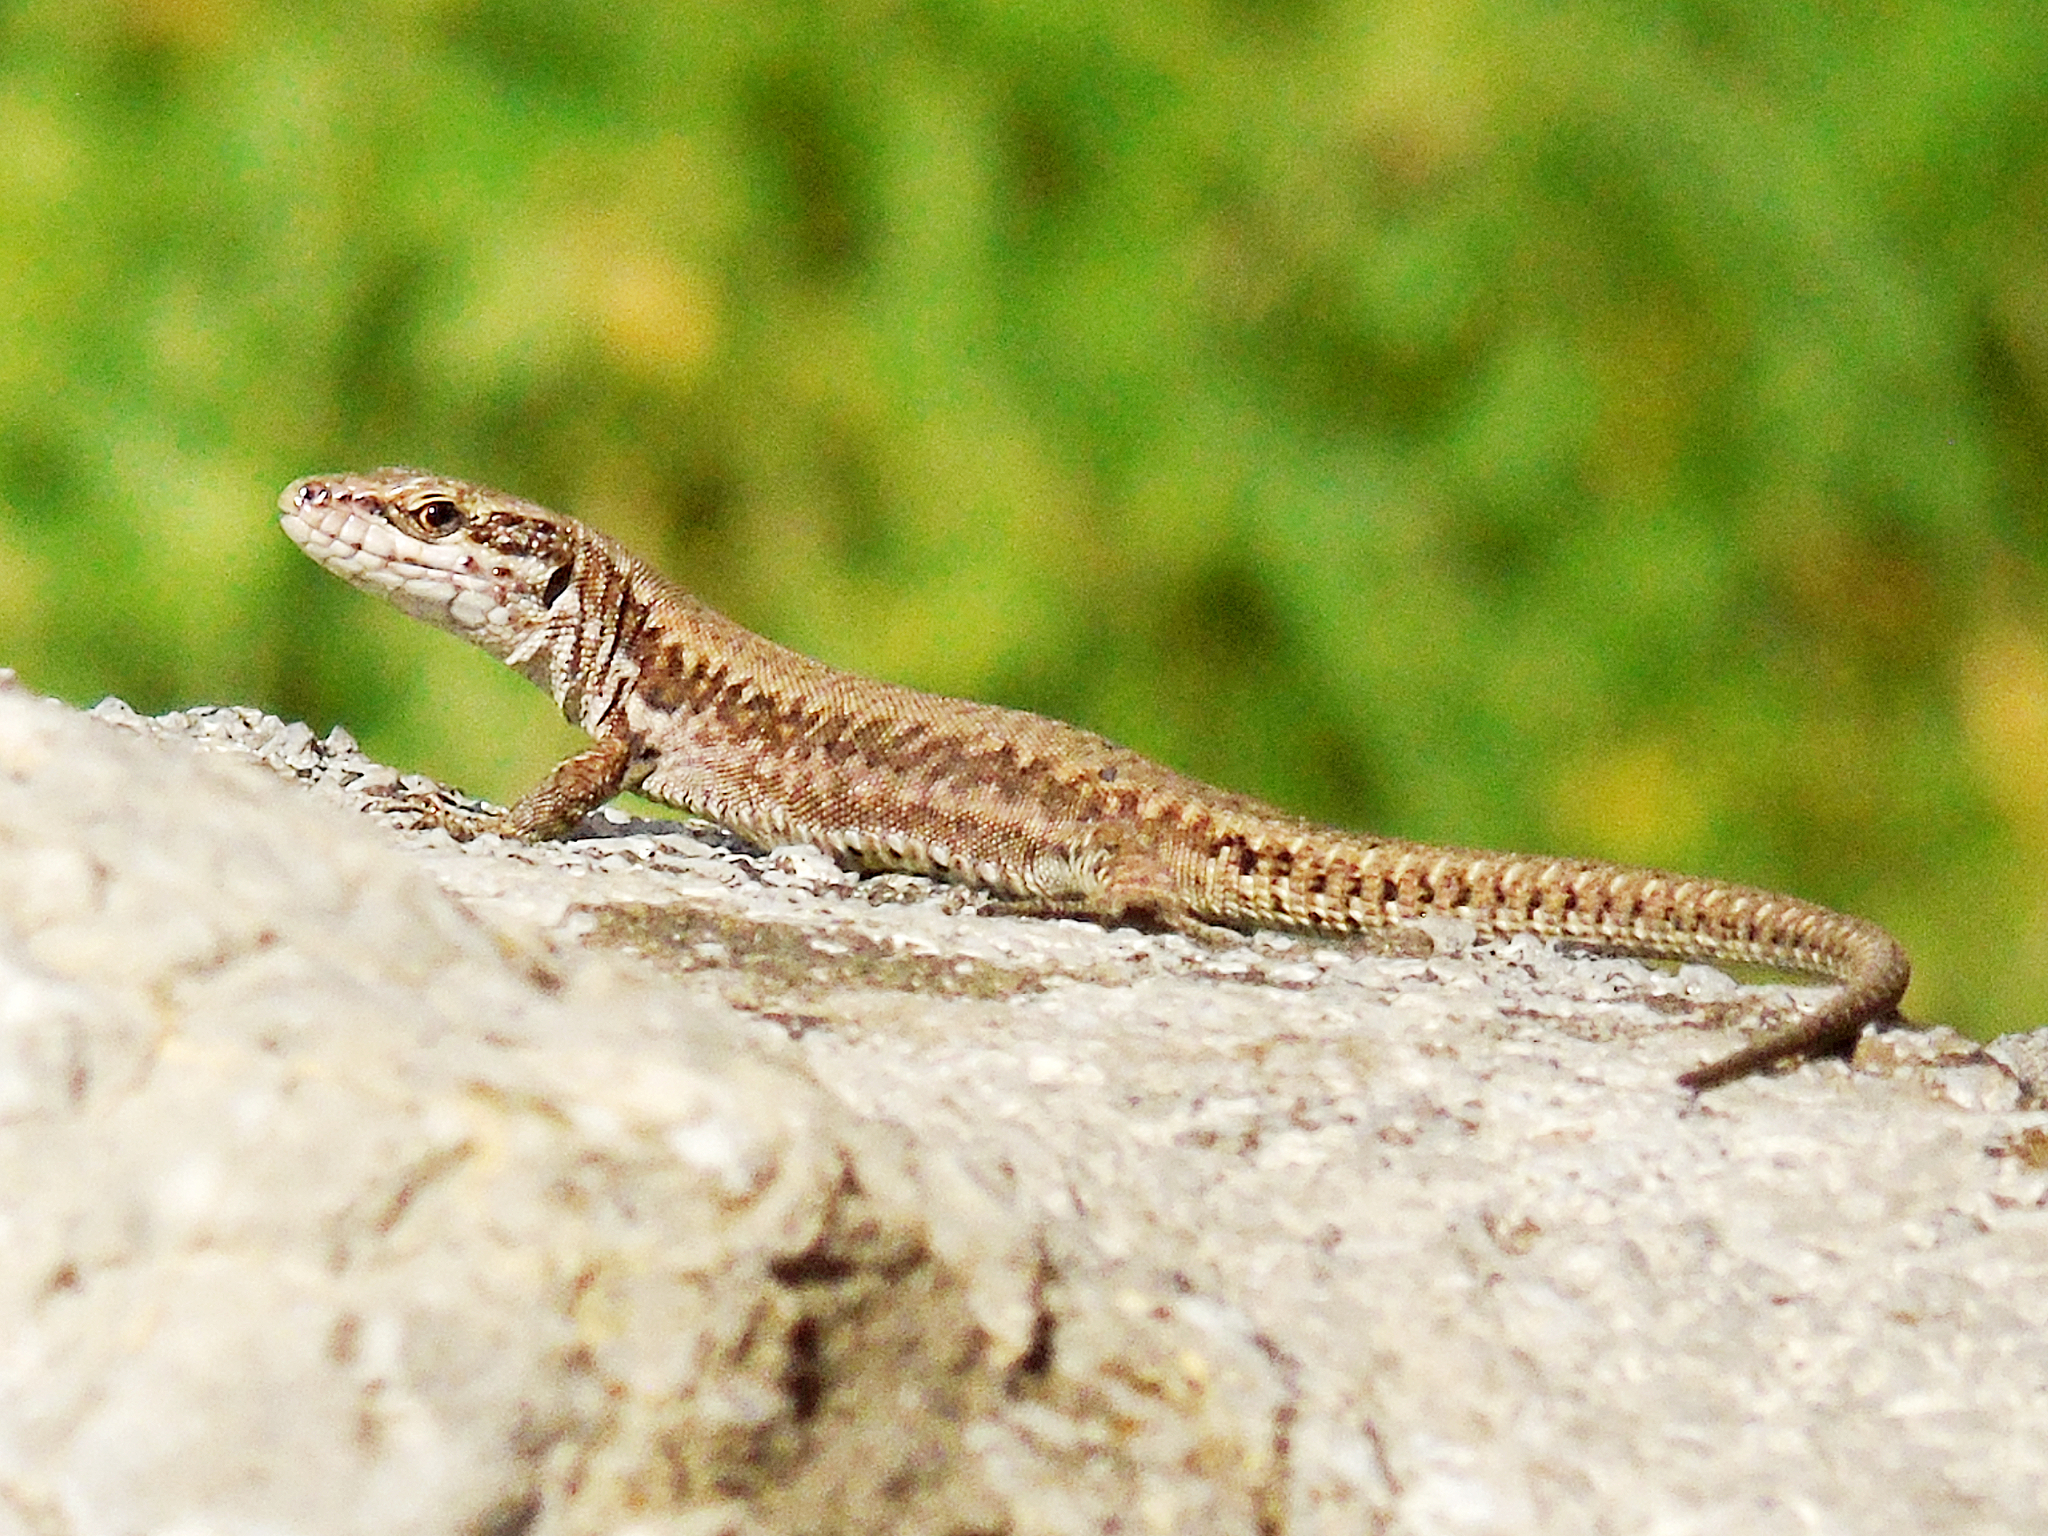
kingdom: Animalia
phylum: Chordata
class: Squamata
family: Lacertidae
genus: Podarcis
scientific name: Podarcis muralis
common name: Common wall lizard
